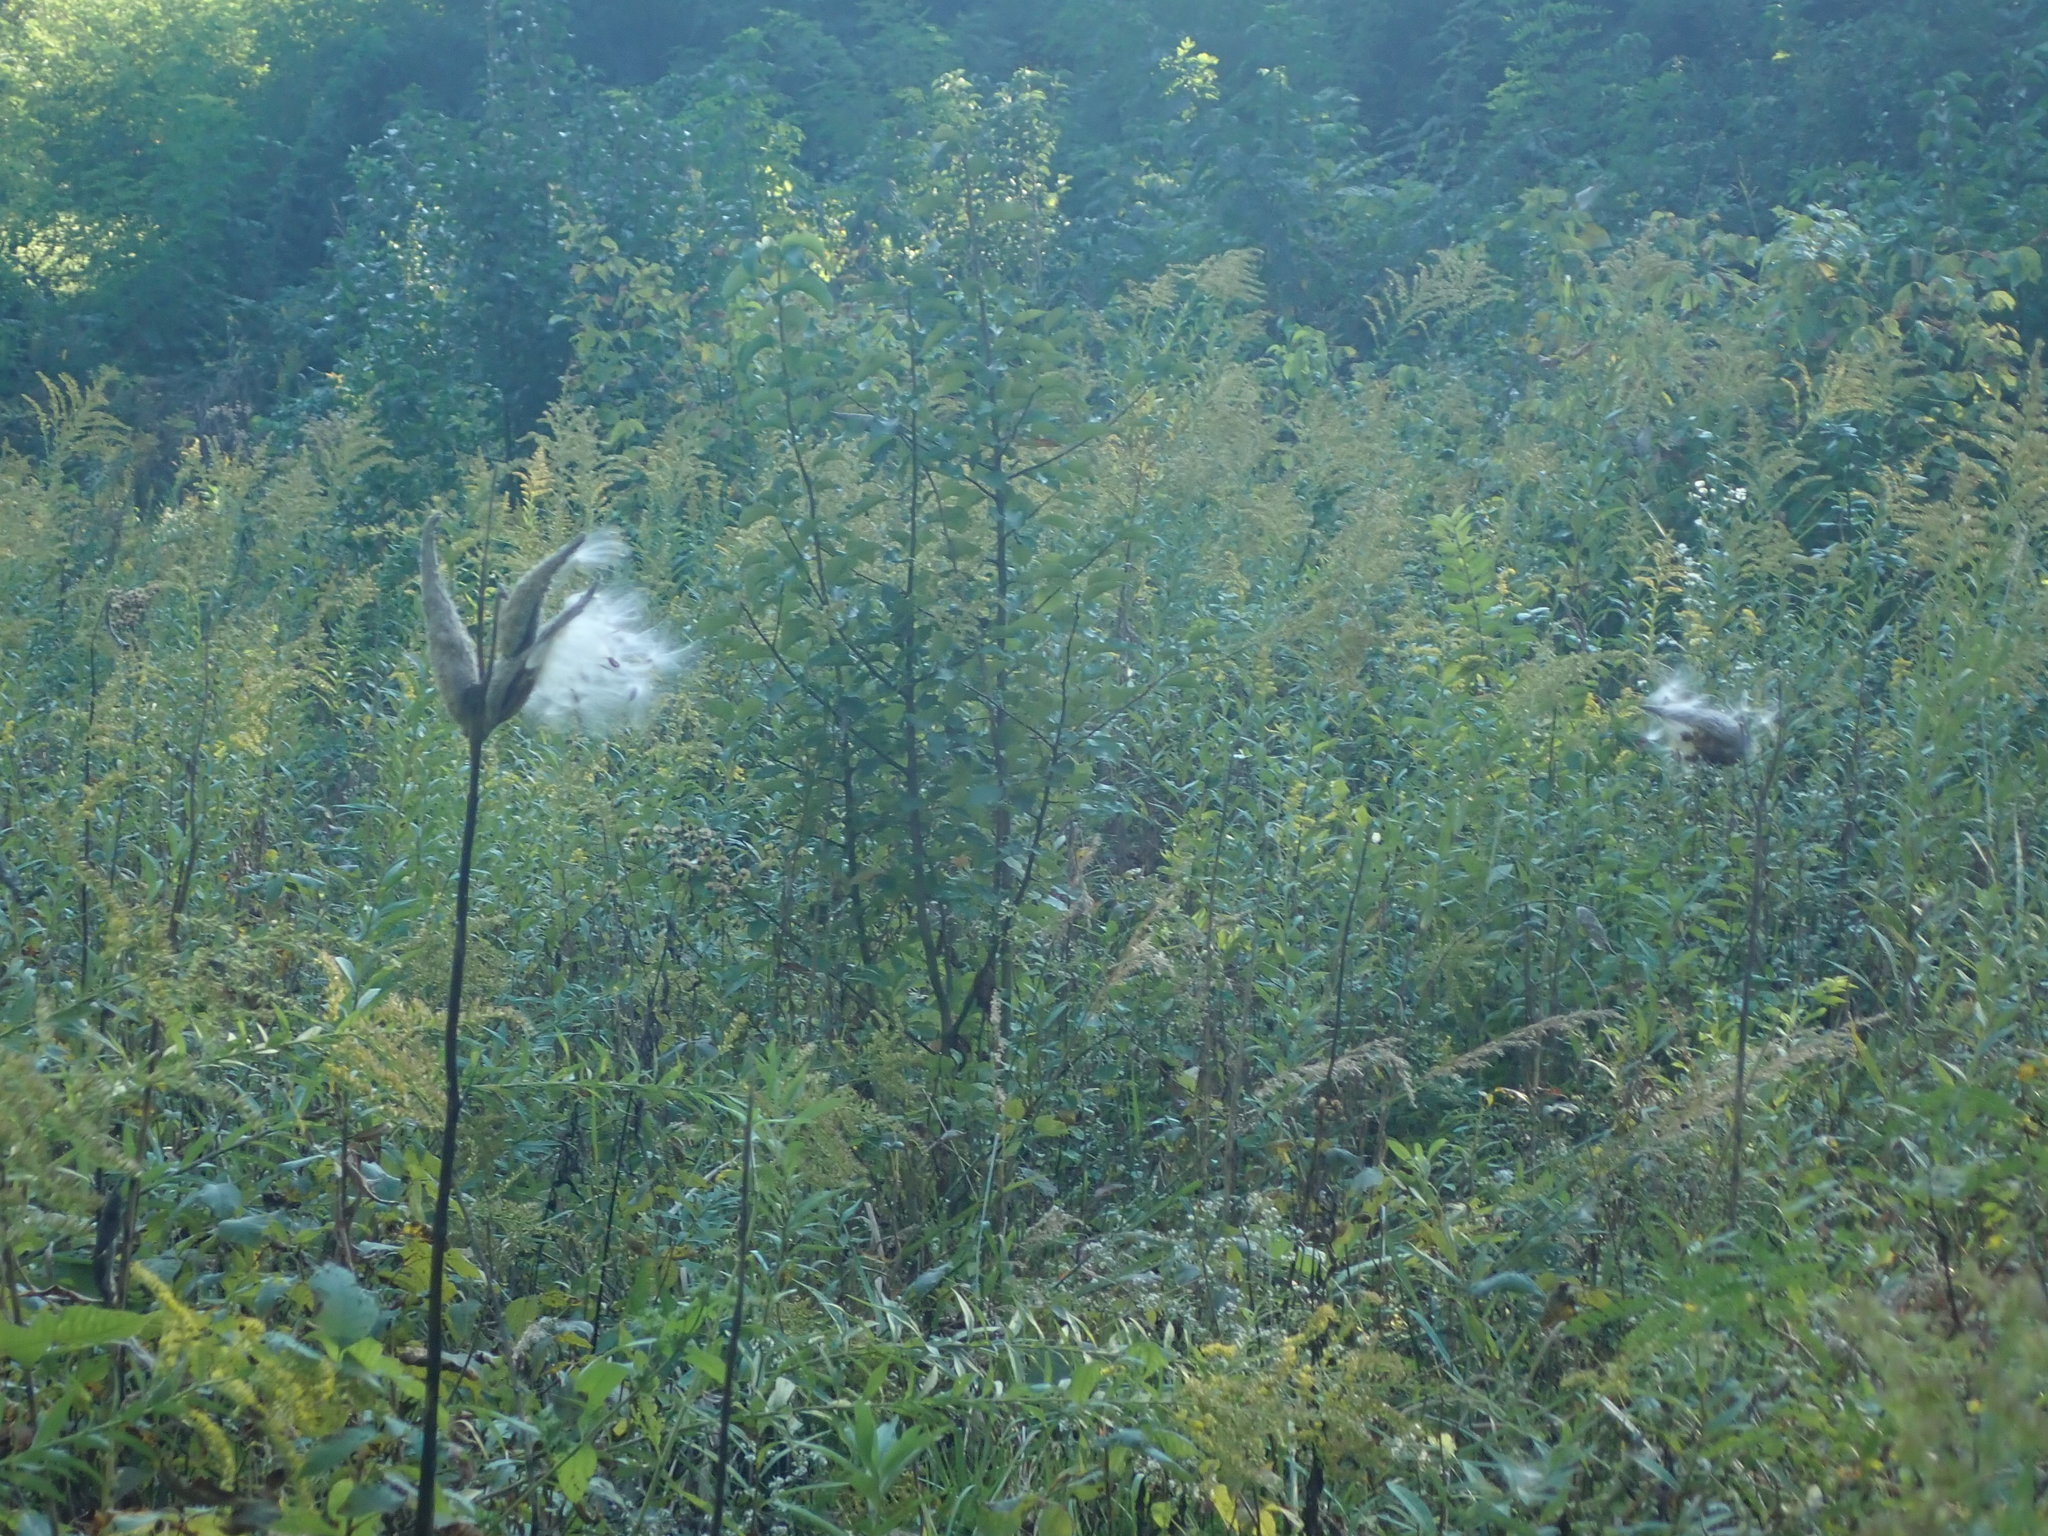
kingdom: Plantae
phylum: Tracheophyta
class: Magnoliopsida
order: Gentianales
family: Apocynaceae
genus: Asclepias
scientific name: Asclepias syriaca
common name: Common milkweed
